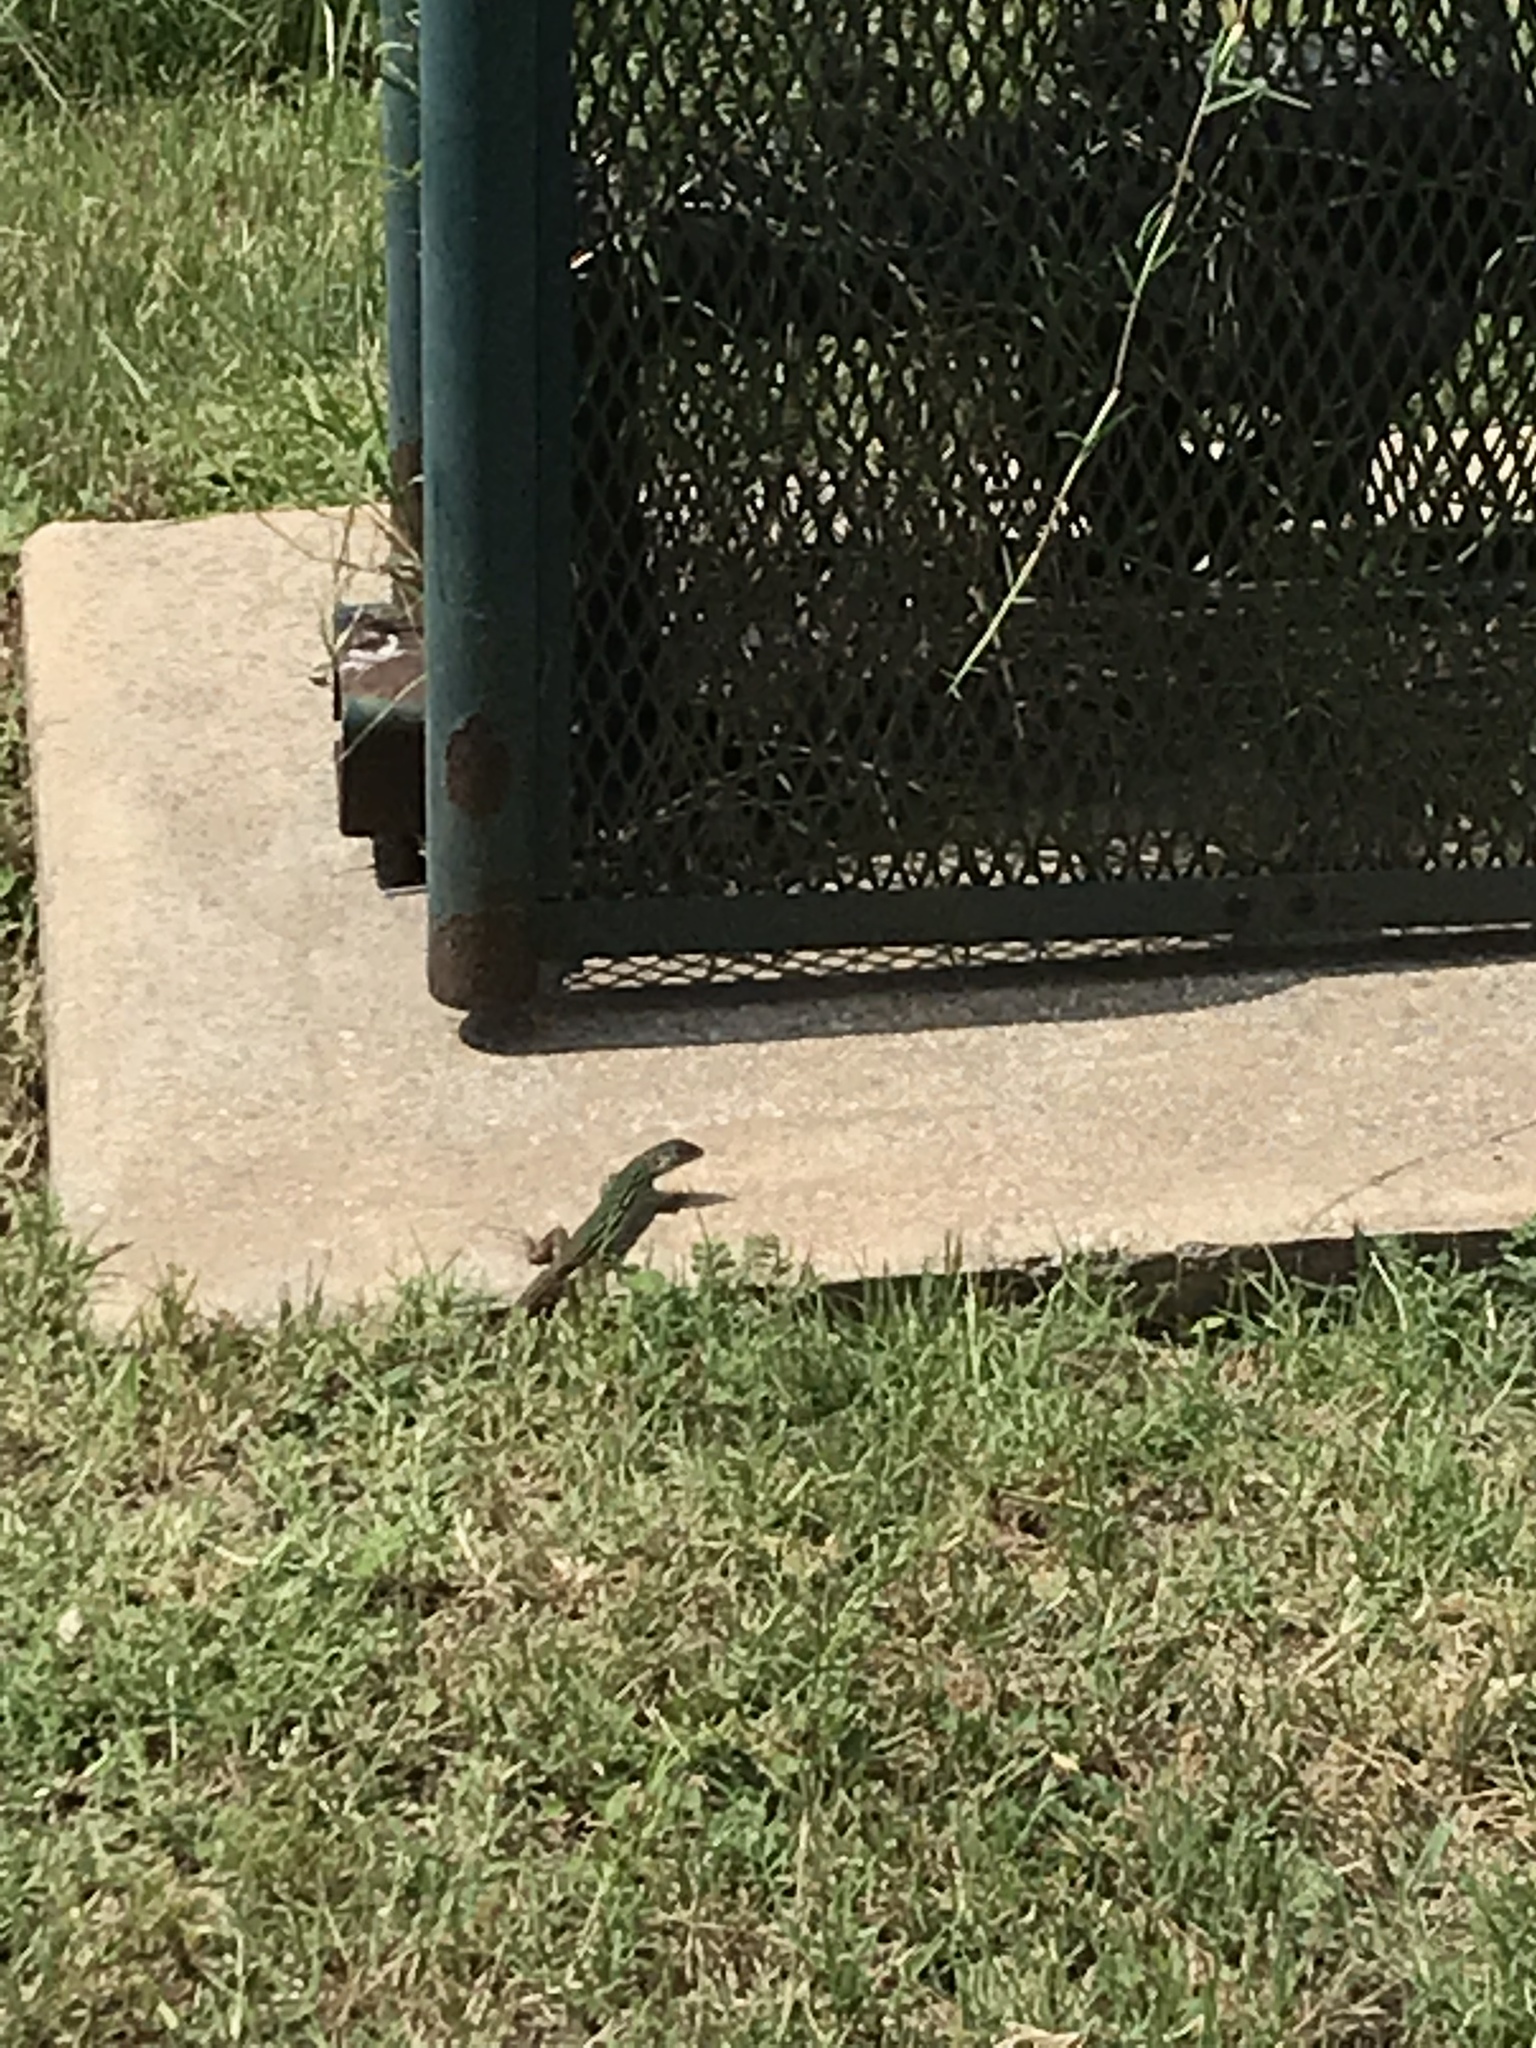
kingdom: Animalia
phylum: Chordata
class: Squamata
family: Teiidae
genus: Aspidoscelis
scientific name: Aspidoscelis gularis
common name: Eastern spotted whiptail
